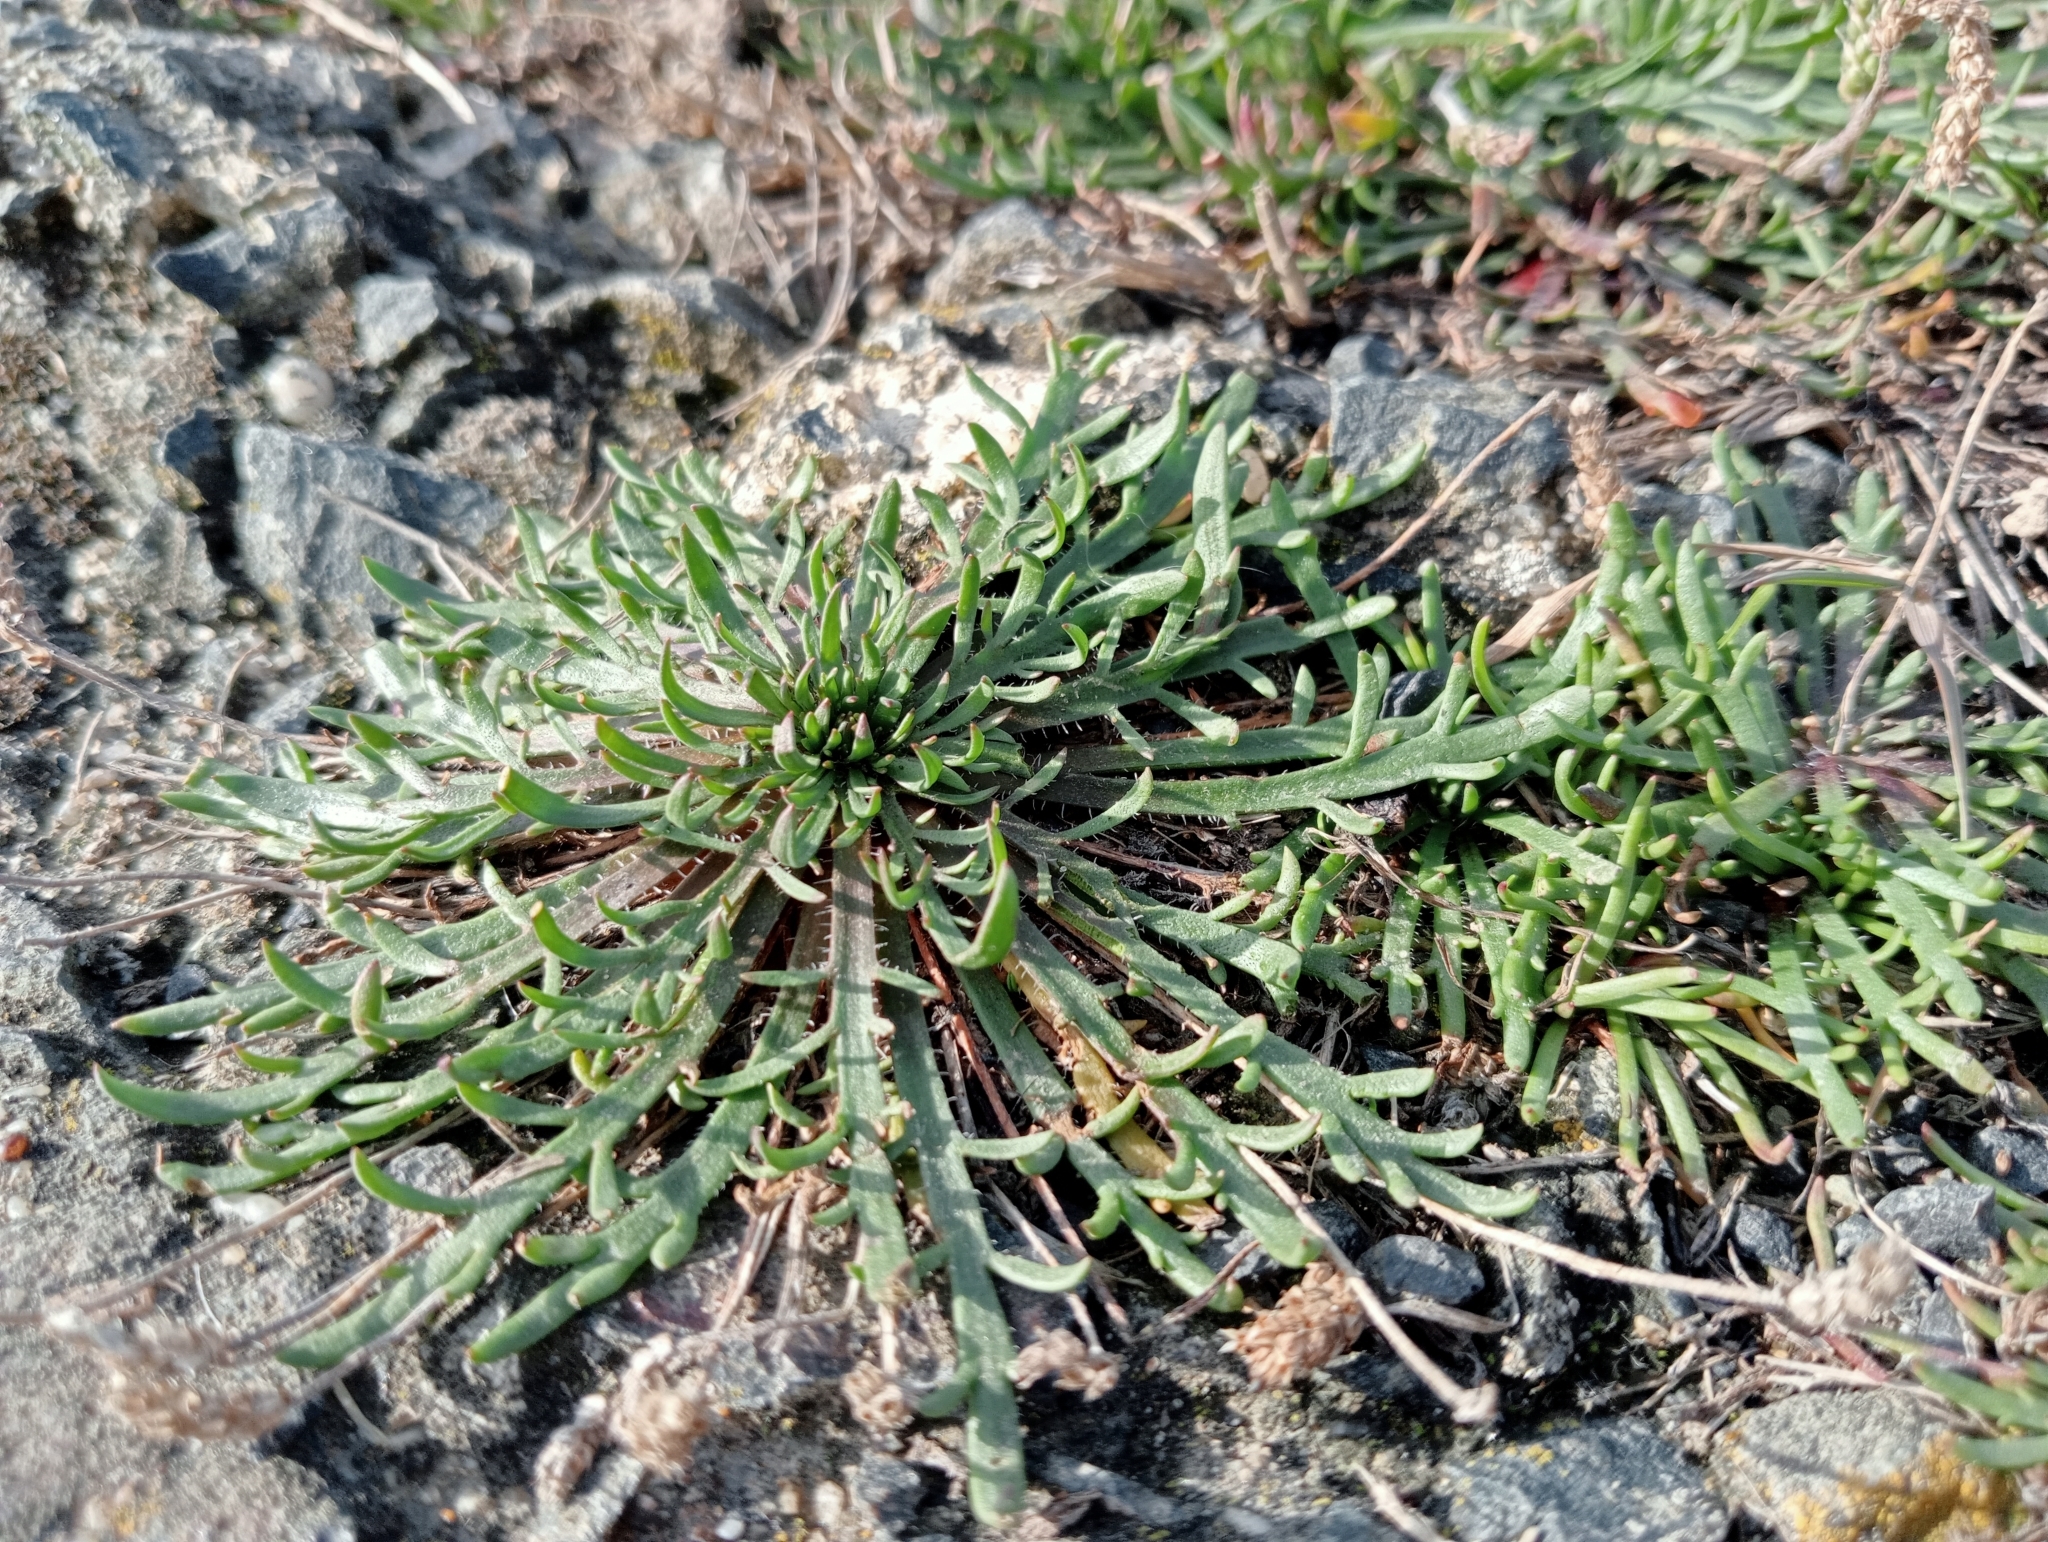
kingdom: Plantae
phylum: Tracheophyta
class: Magnoliopsida
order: Lamiales
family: Plantaginaceae
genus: Plantago
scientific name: Plantago coronopus
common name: Buck's-horn plantain
